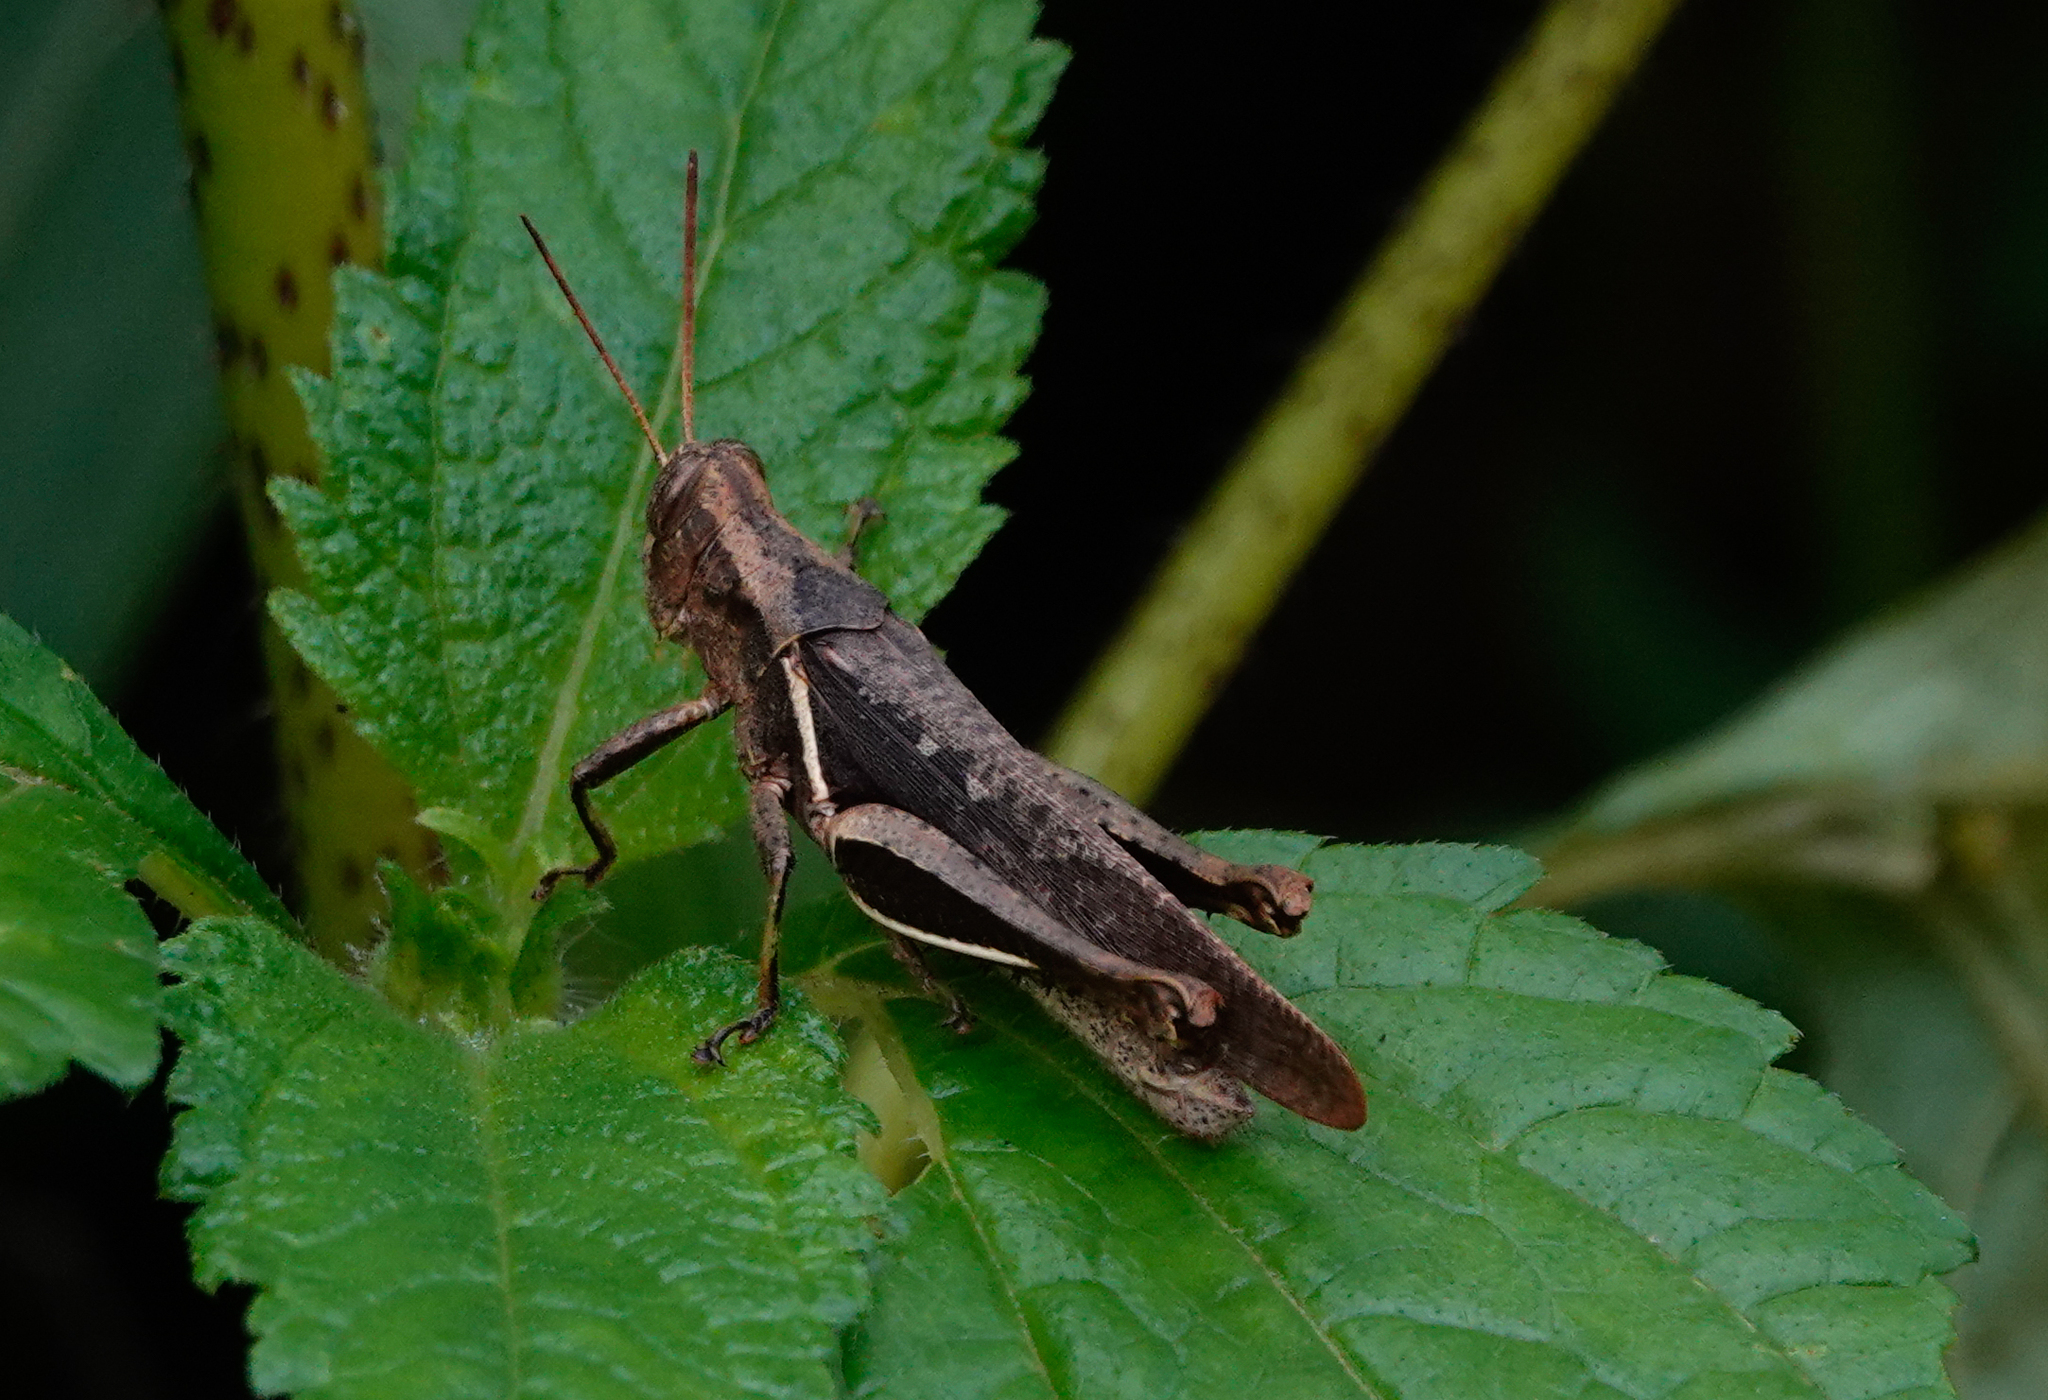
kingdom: Animalia
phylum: Arthropoda
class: Insecta
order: Orthoptera
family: Acrididae
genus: Abracris
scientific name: Abracris flavolineata
